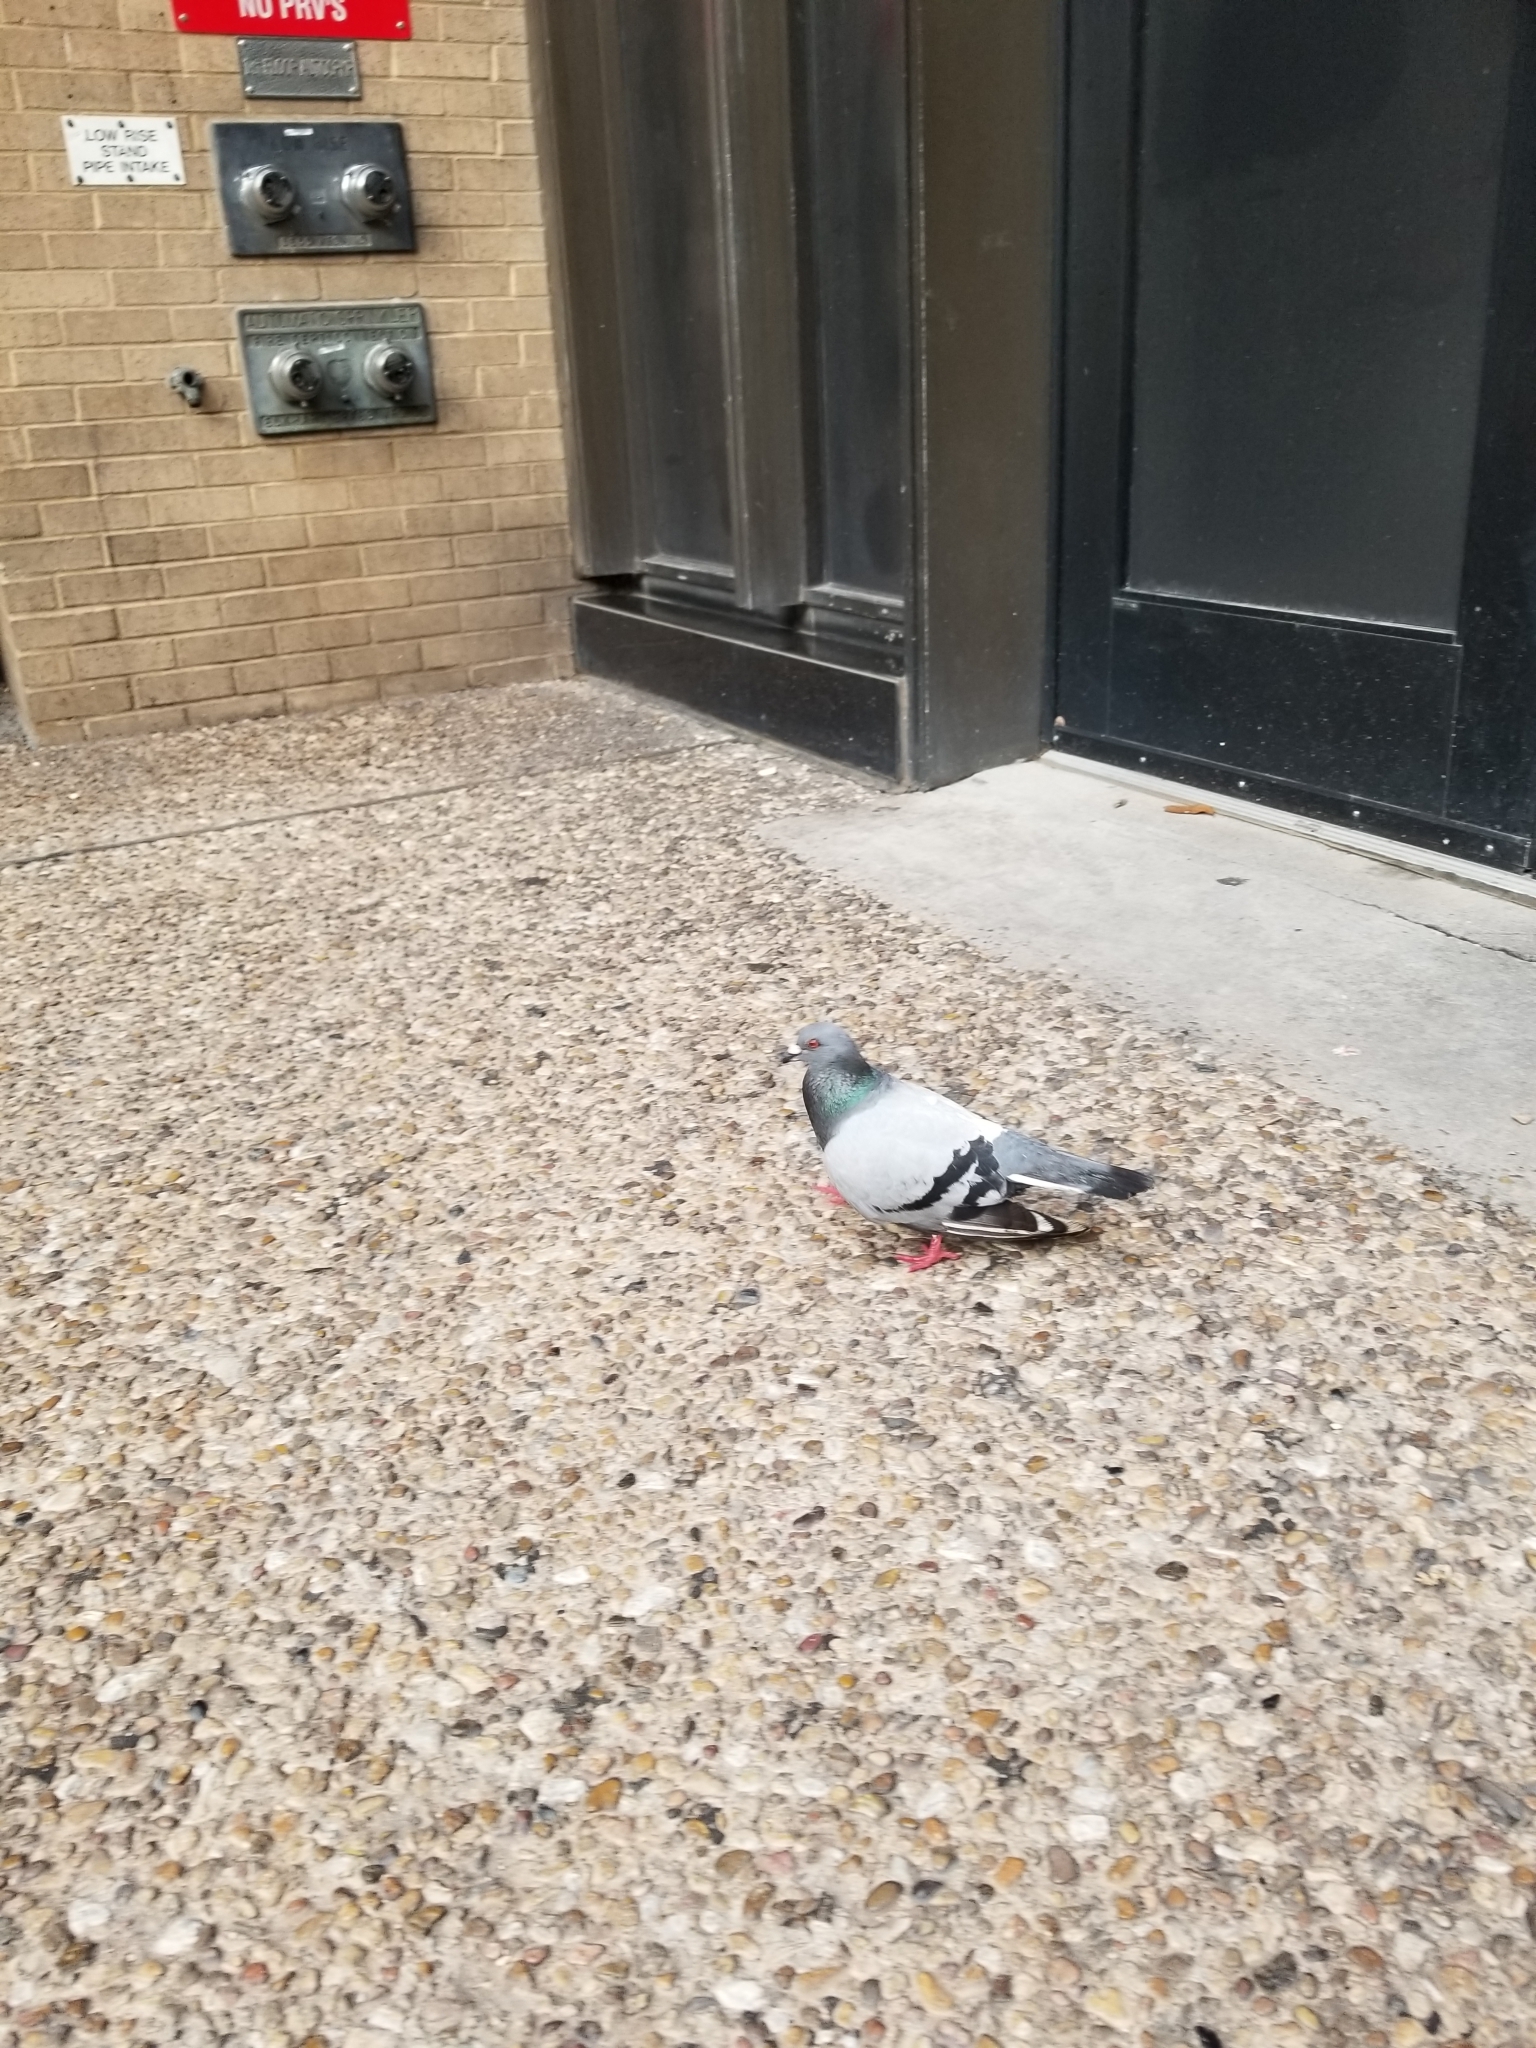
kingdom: Animalia
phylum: Chordata
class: Aves
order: Columbiformes
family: Columbidae
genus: Columba
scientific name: Columba livia
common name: Rock pigeon
